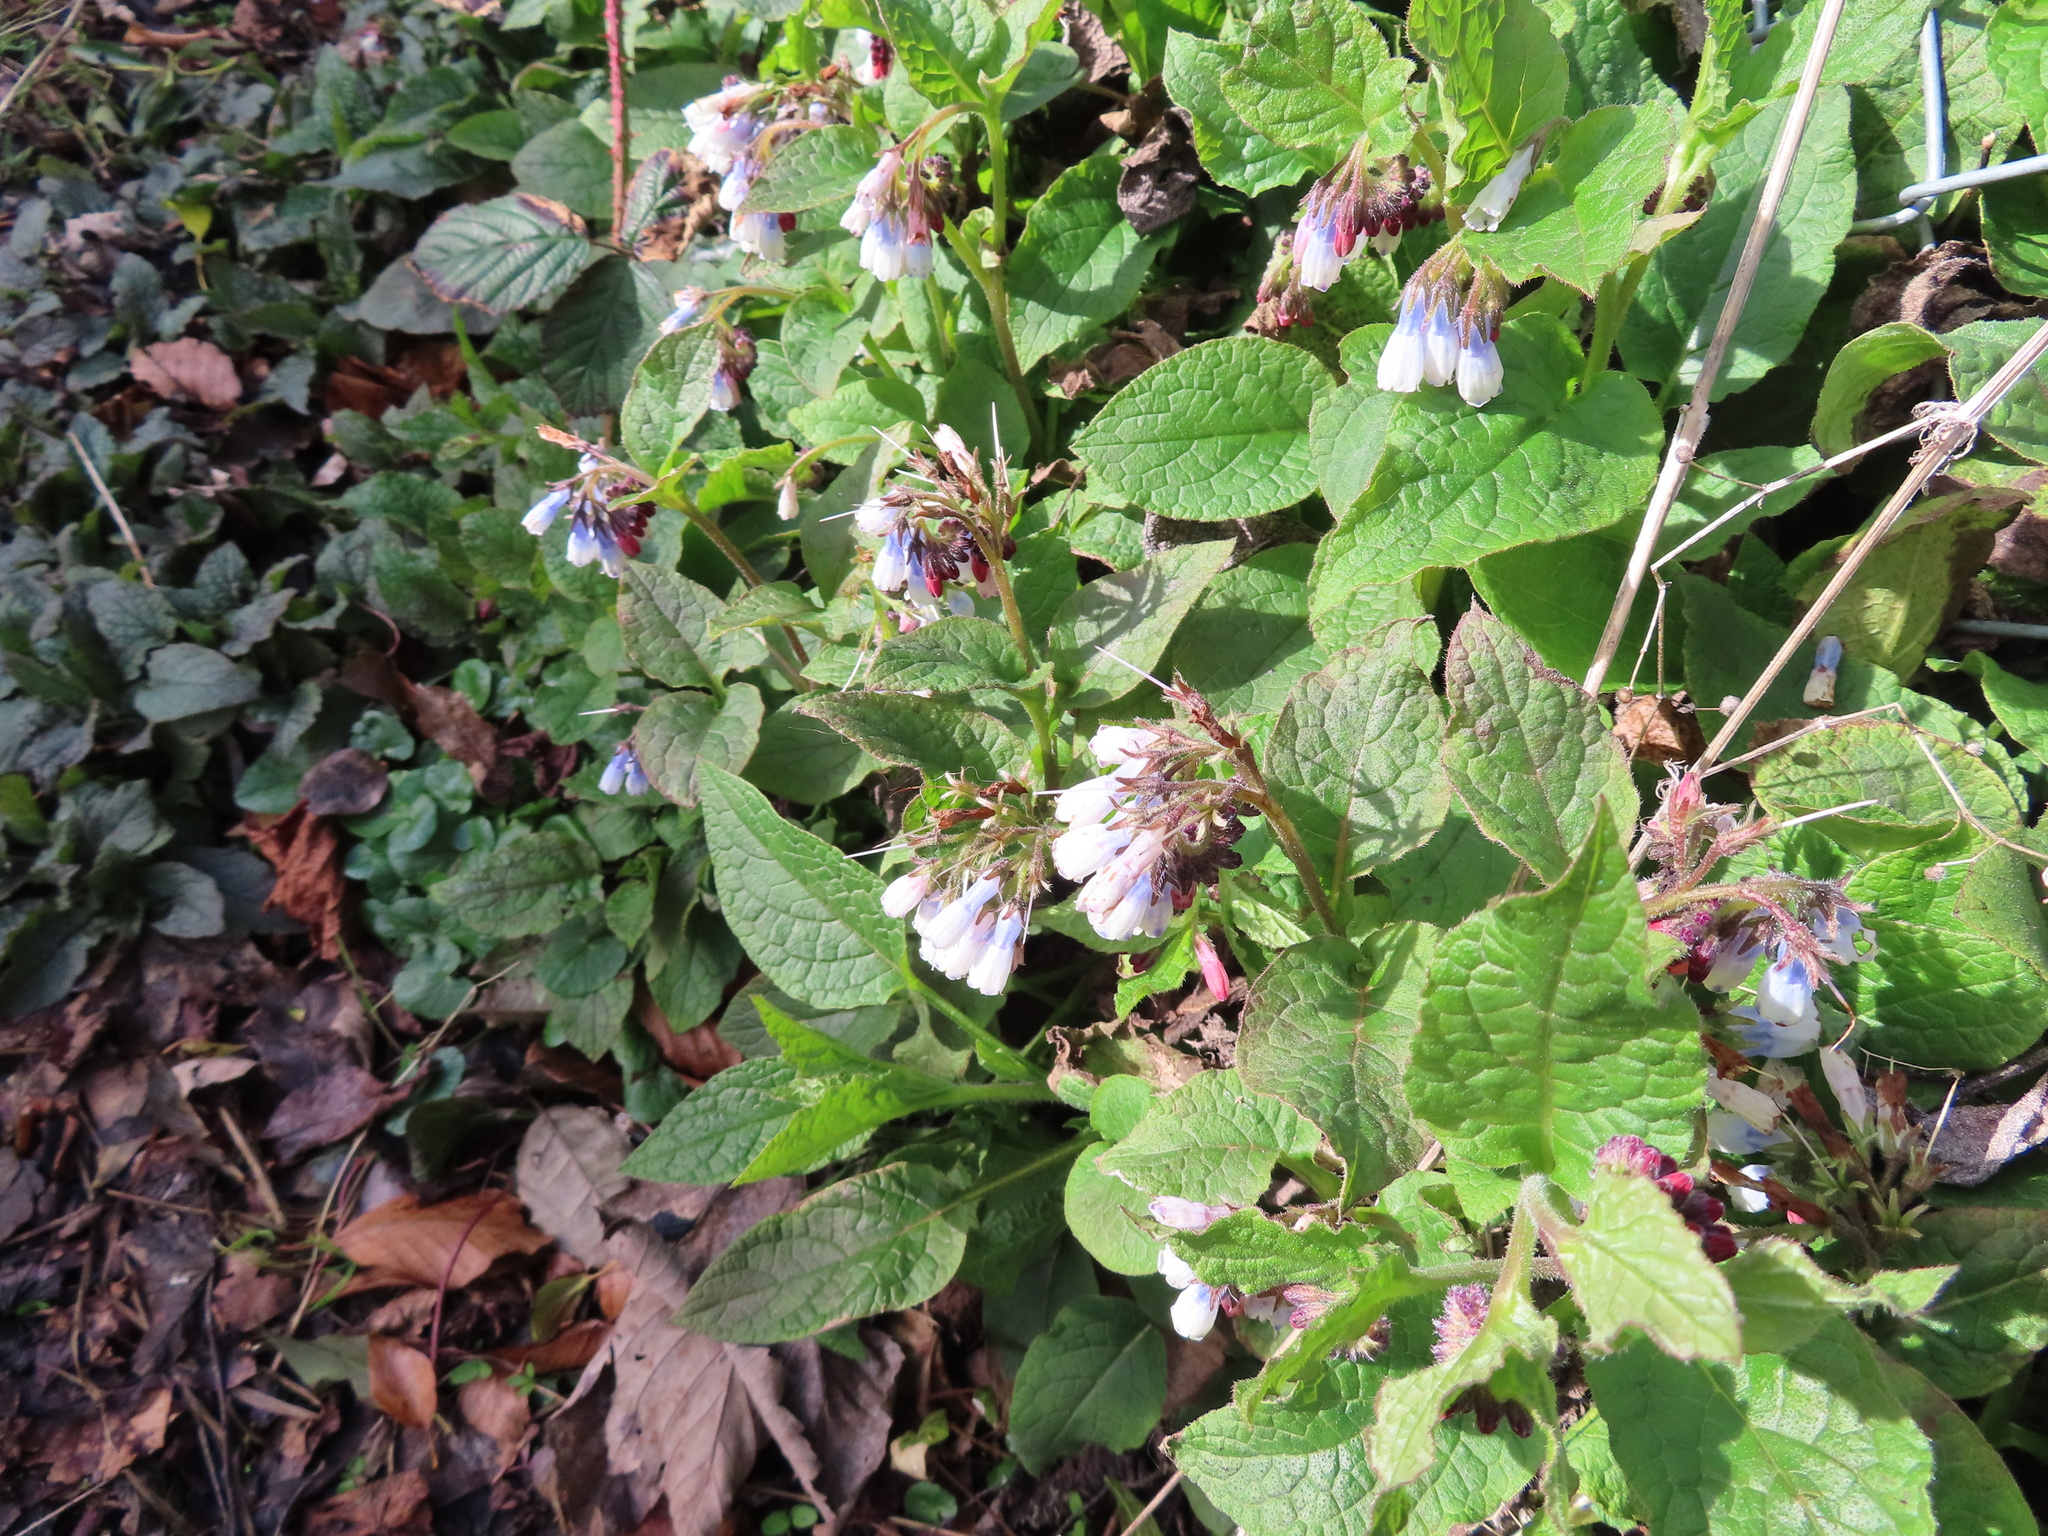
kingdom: Plantae
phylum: Tracheophyta
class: Magnoliopsida
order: Boraginales
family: Boraginaceae
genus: Symphytum
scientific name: Symphytum hidcotense
